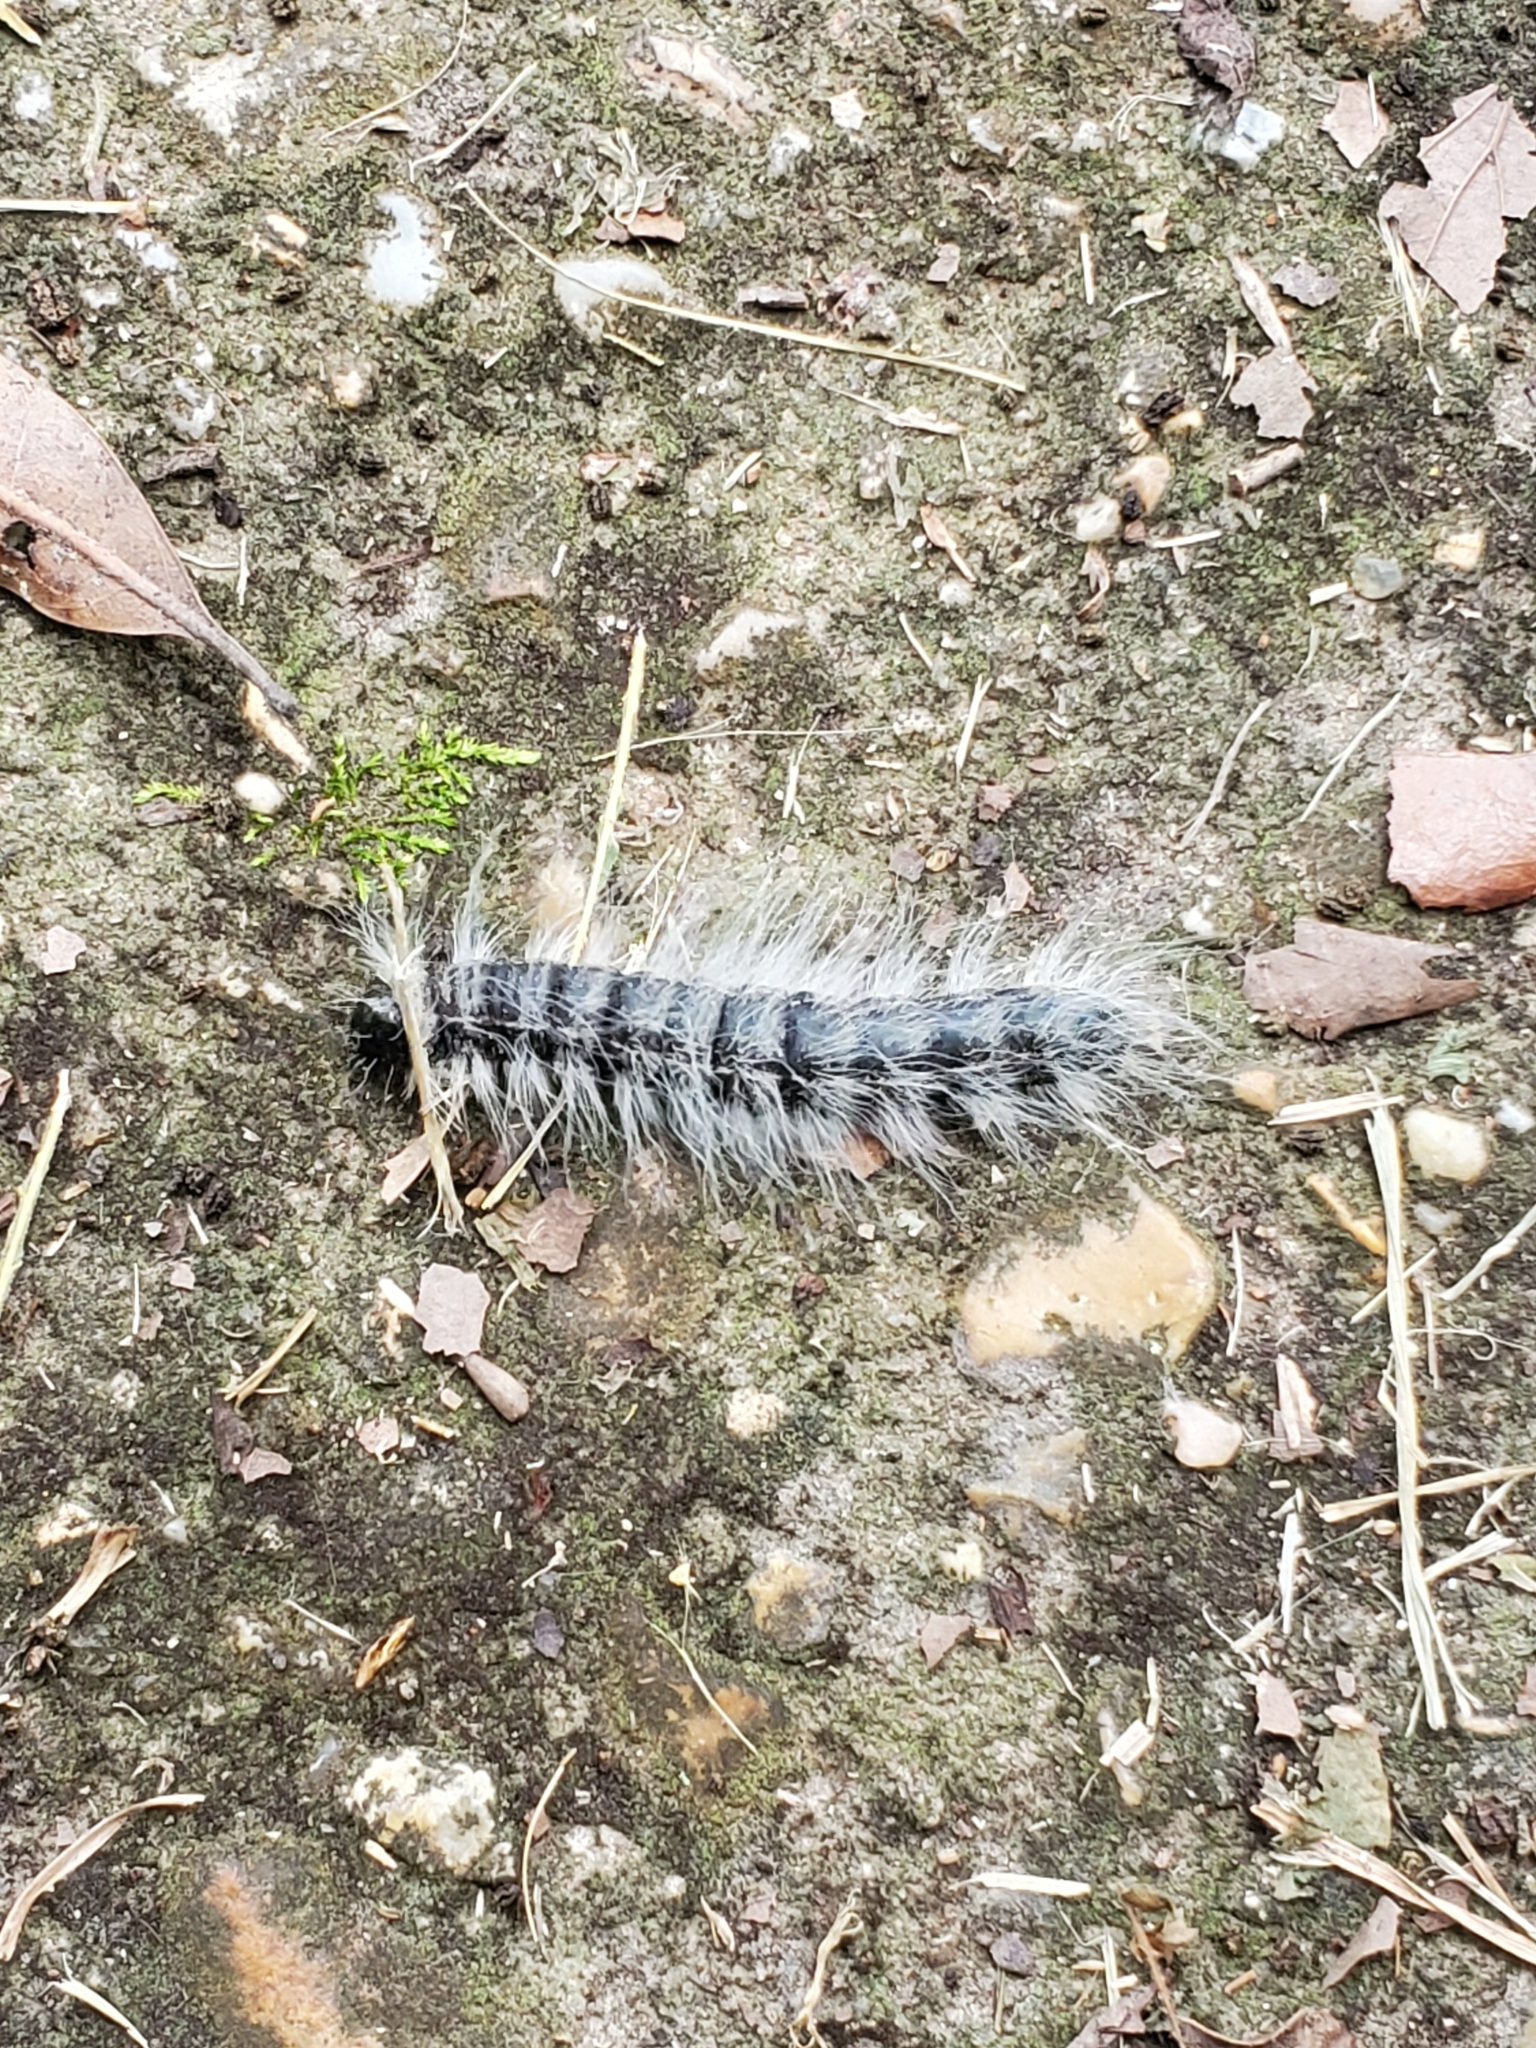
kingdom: Animalia
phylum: Arthropoda
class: Insecta
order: Lepidoptera
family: Notodontidae
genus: Datana
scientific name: Datana integerrima
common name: Walnut caterpillar
